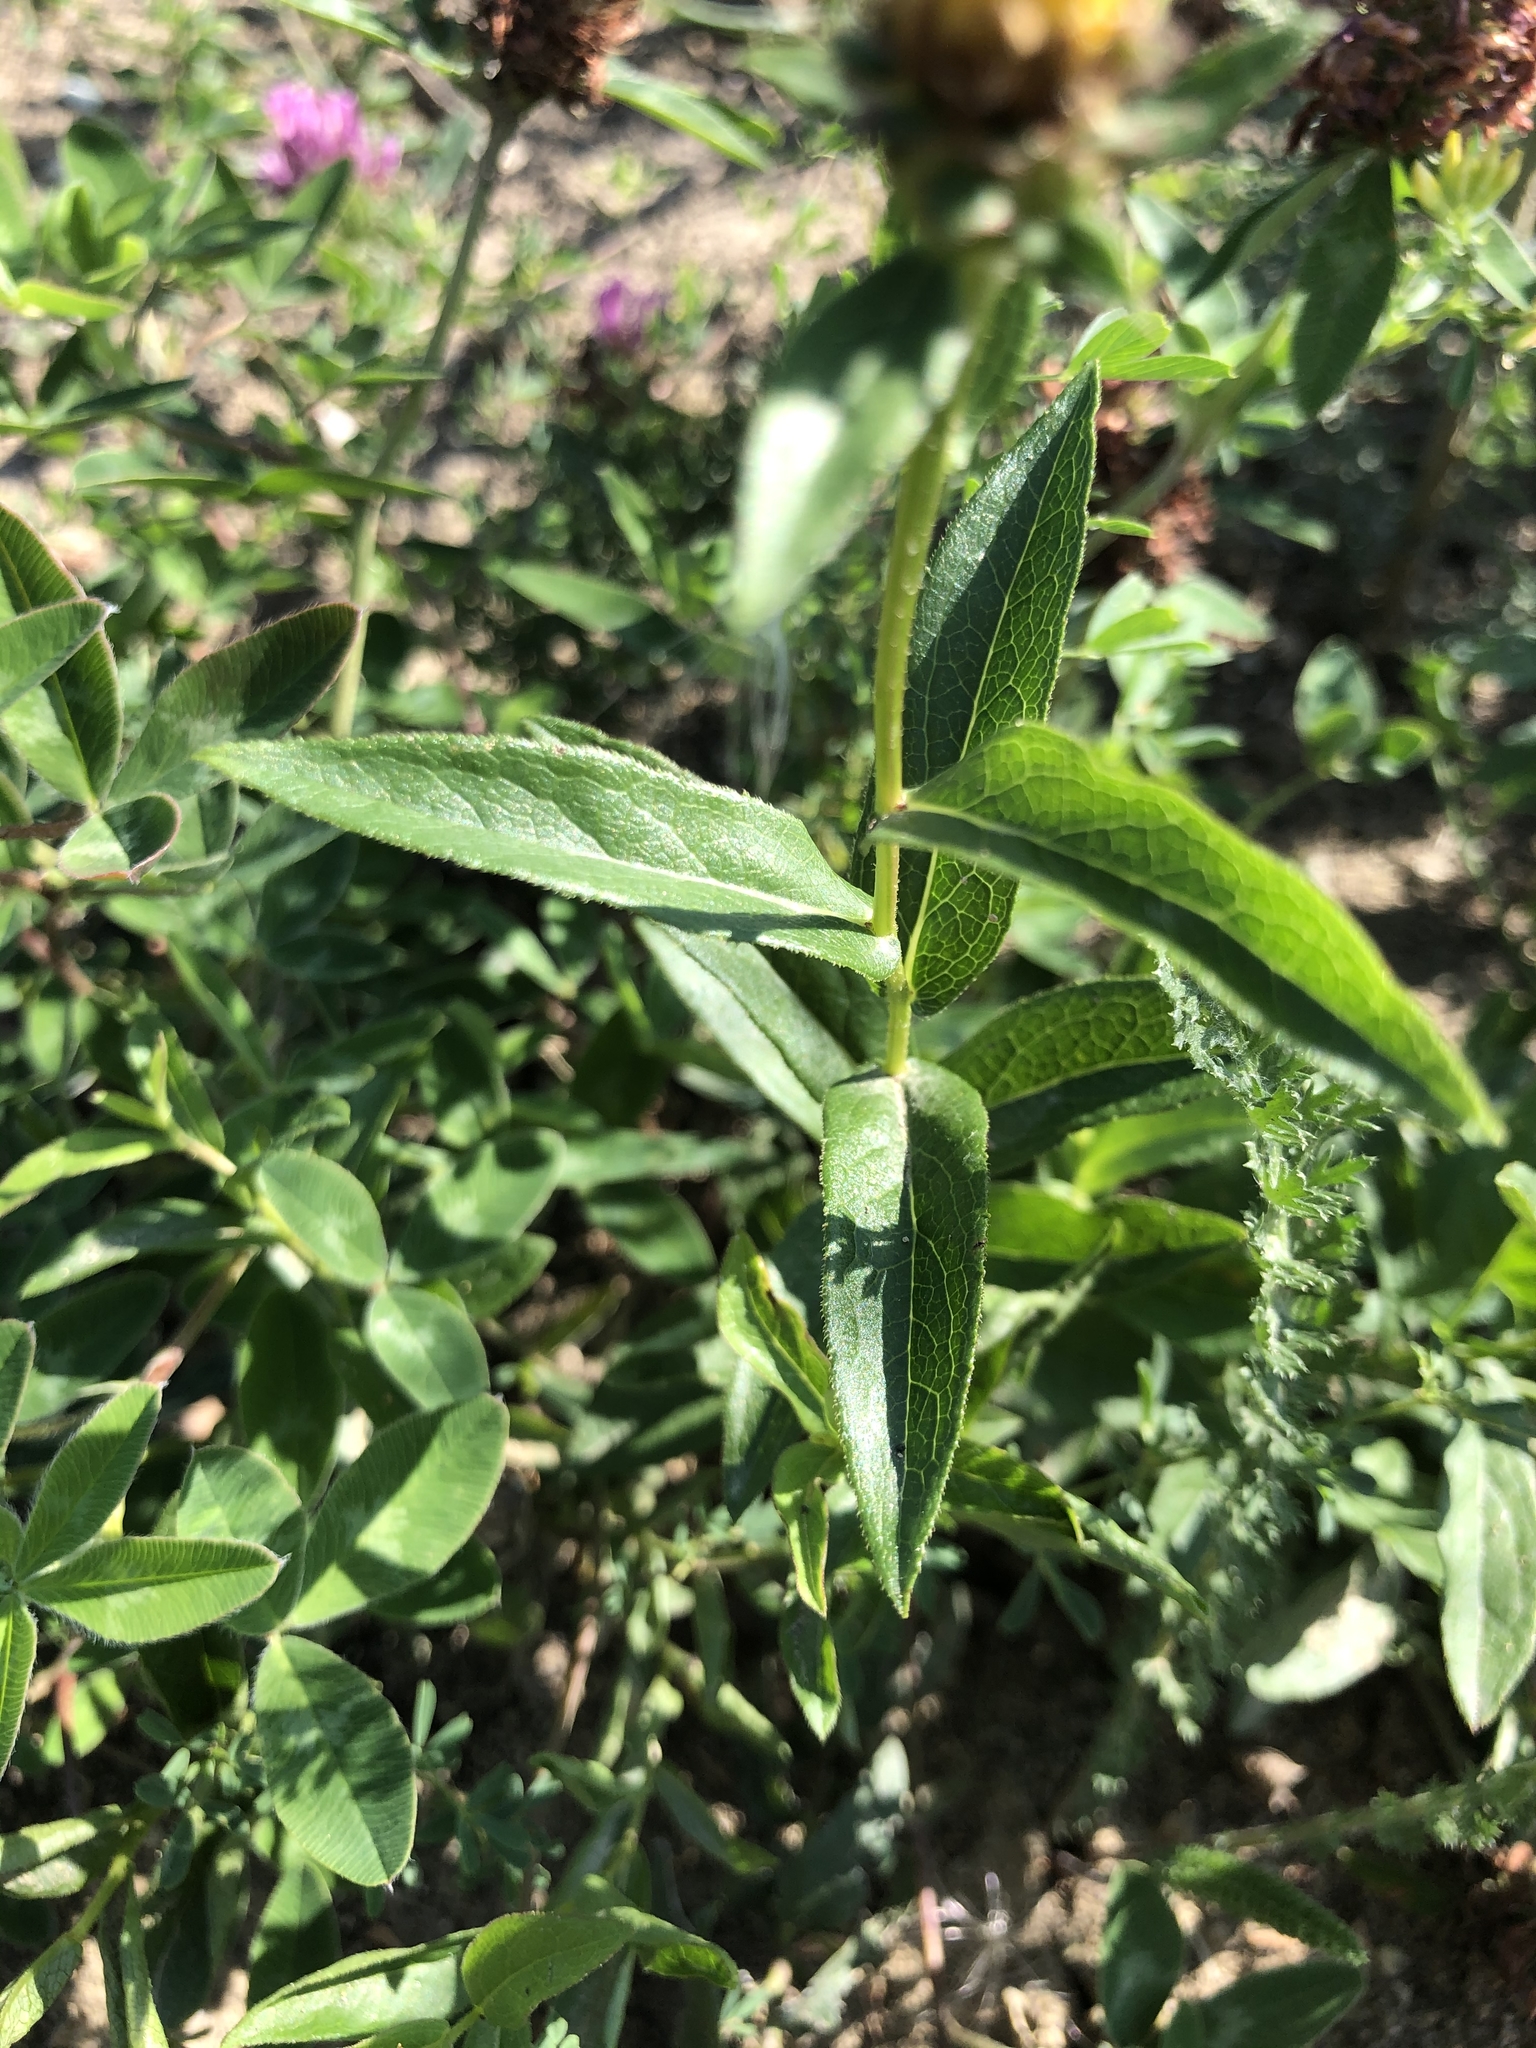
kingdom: Plantae
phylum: Tracheophyta
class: Magnoliopsida
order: Asterales
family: Asteraceae
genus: Pentanema
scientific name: Pentanema salicinum
